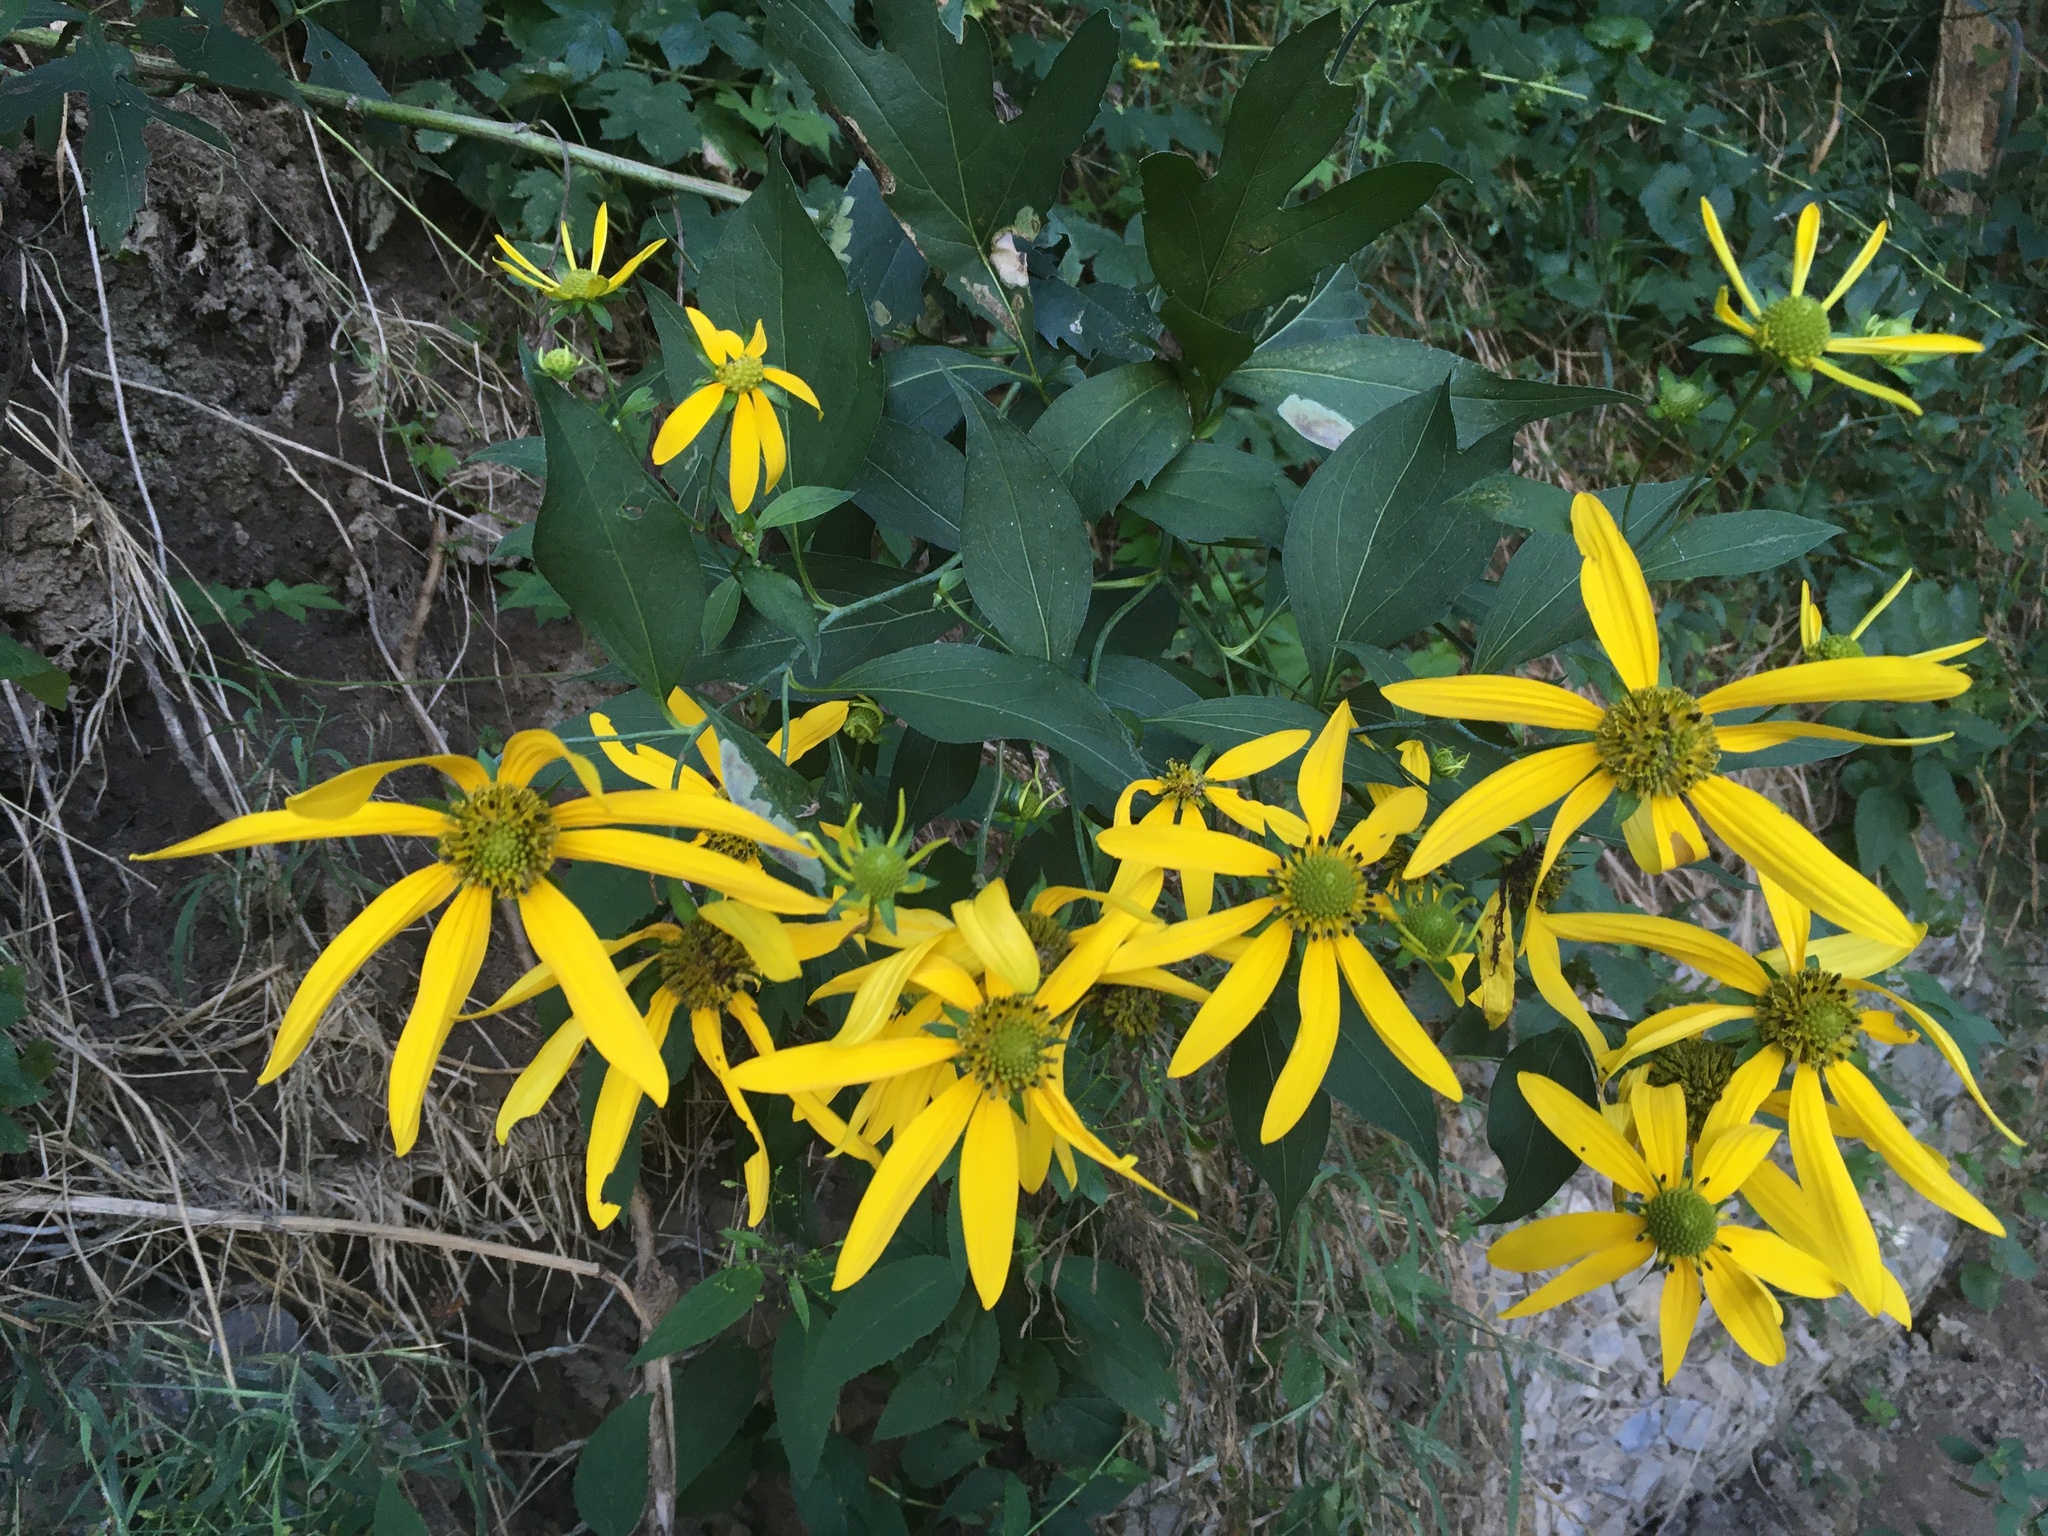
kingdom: Plantae
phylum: Tracheophyta
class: Magnoliopsida
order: Asterales
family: Asteraceae
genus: Rudbeckia
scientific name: Rudbeckia laciniata
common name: Coneflower
